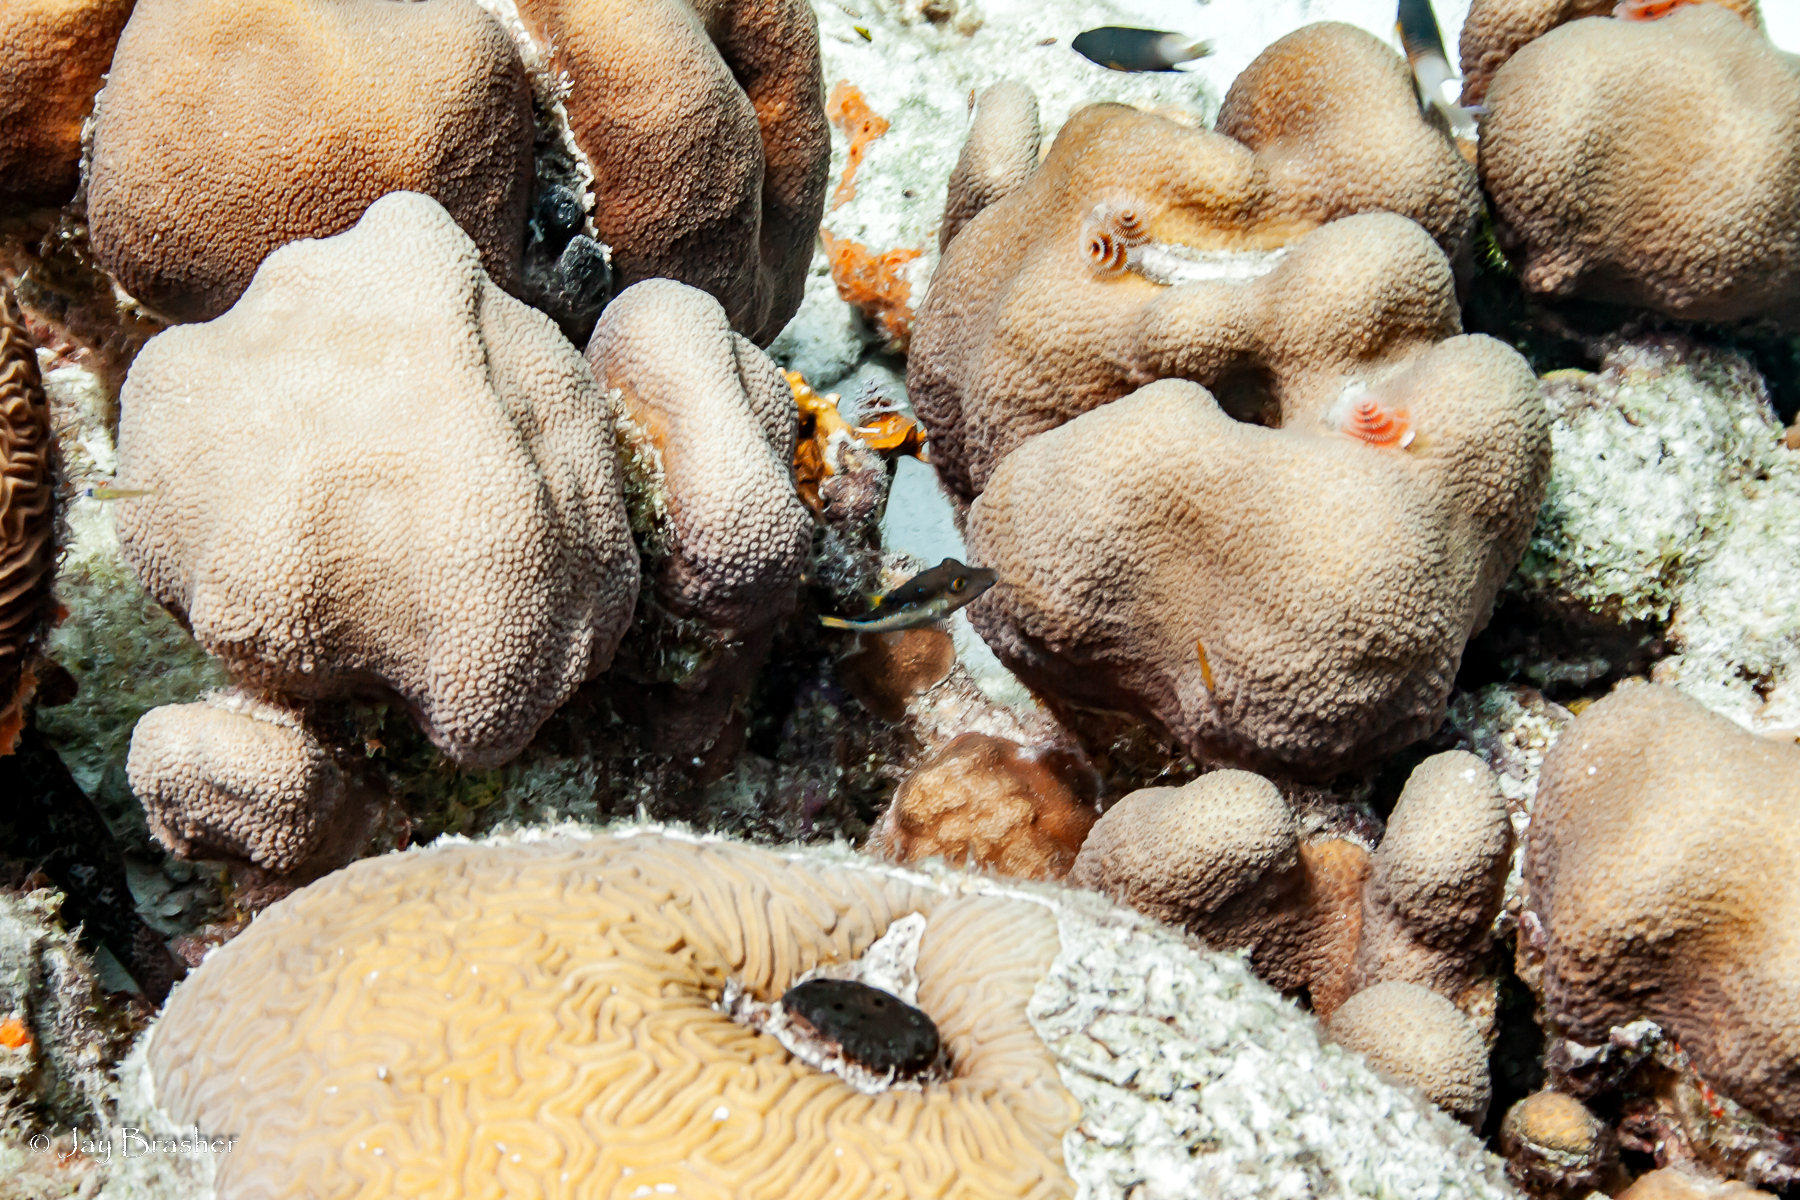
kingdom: Animalia
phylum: Cnidaria
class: Anthozoa
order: Scleractinia
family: Merulinidae
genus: Orbicella
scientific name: Orbicella annularis
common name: Boulder star coral
